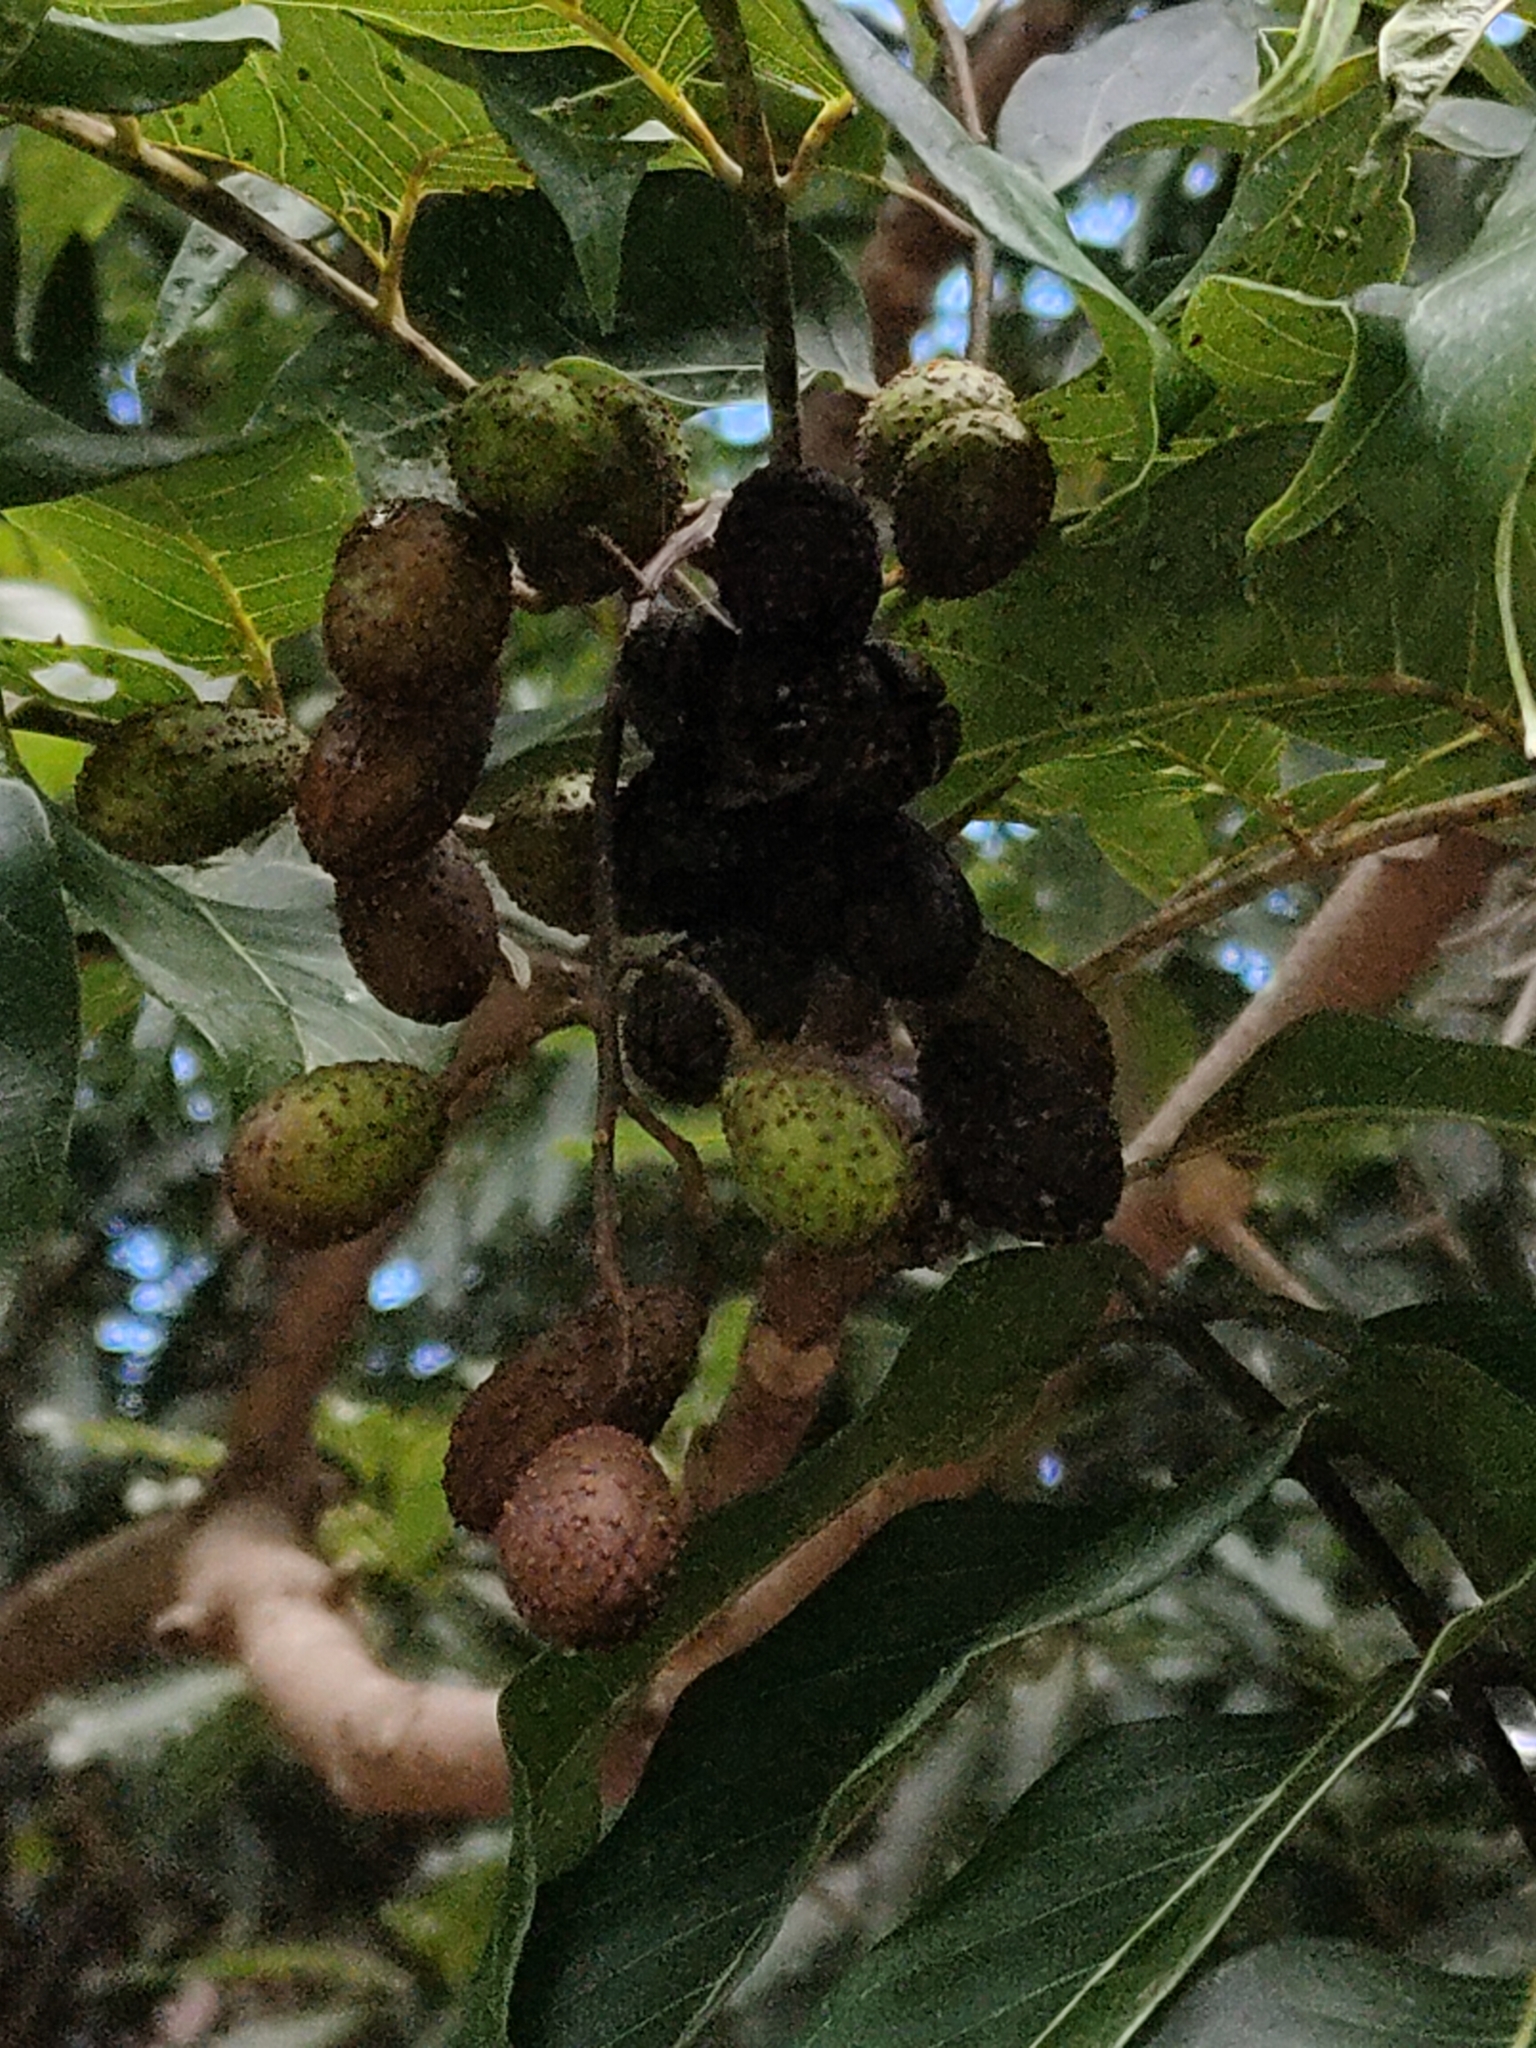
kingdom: Plantae
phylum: Tracheophyta
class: Magnoliopsida
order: Sapindales
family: Meliaceae
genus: Toona
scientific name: Toona ciliata
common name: Australian redcedar
